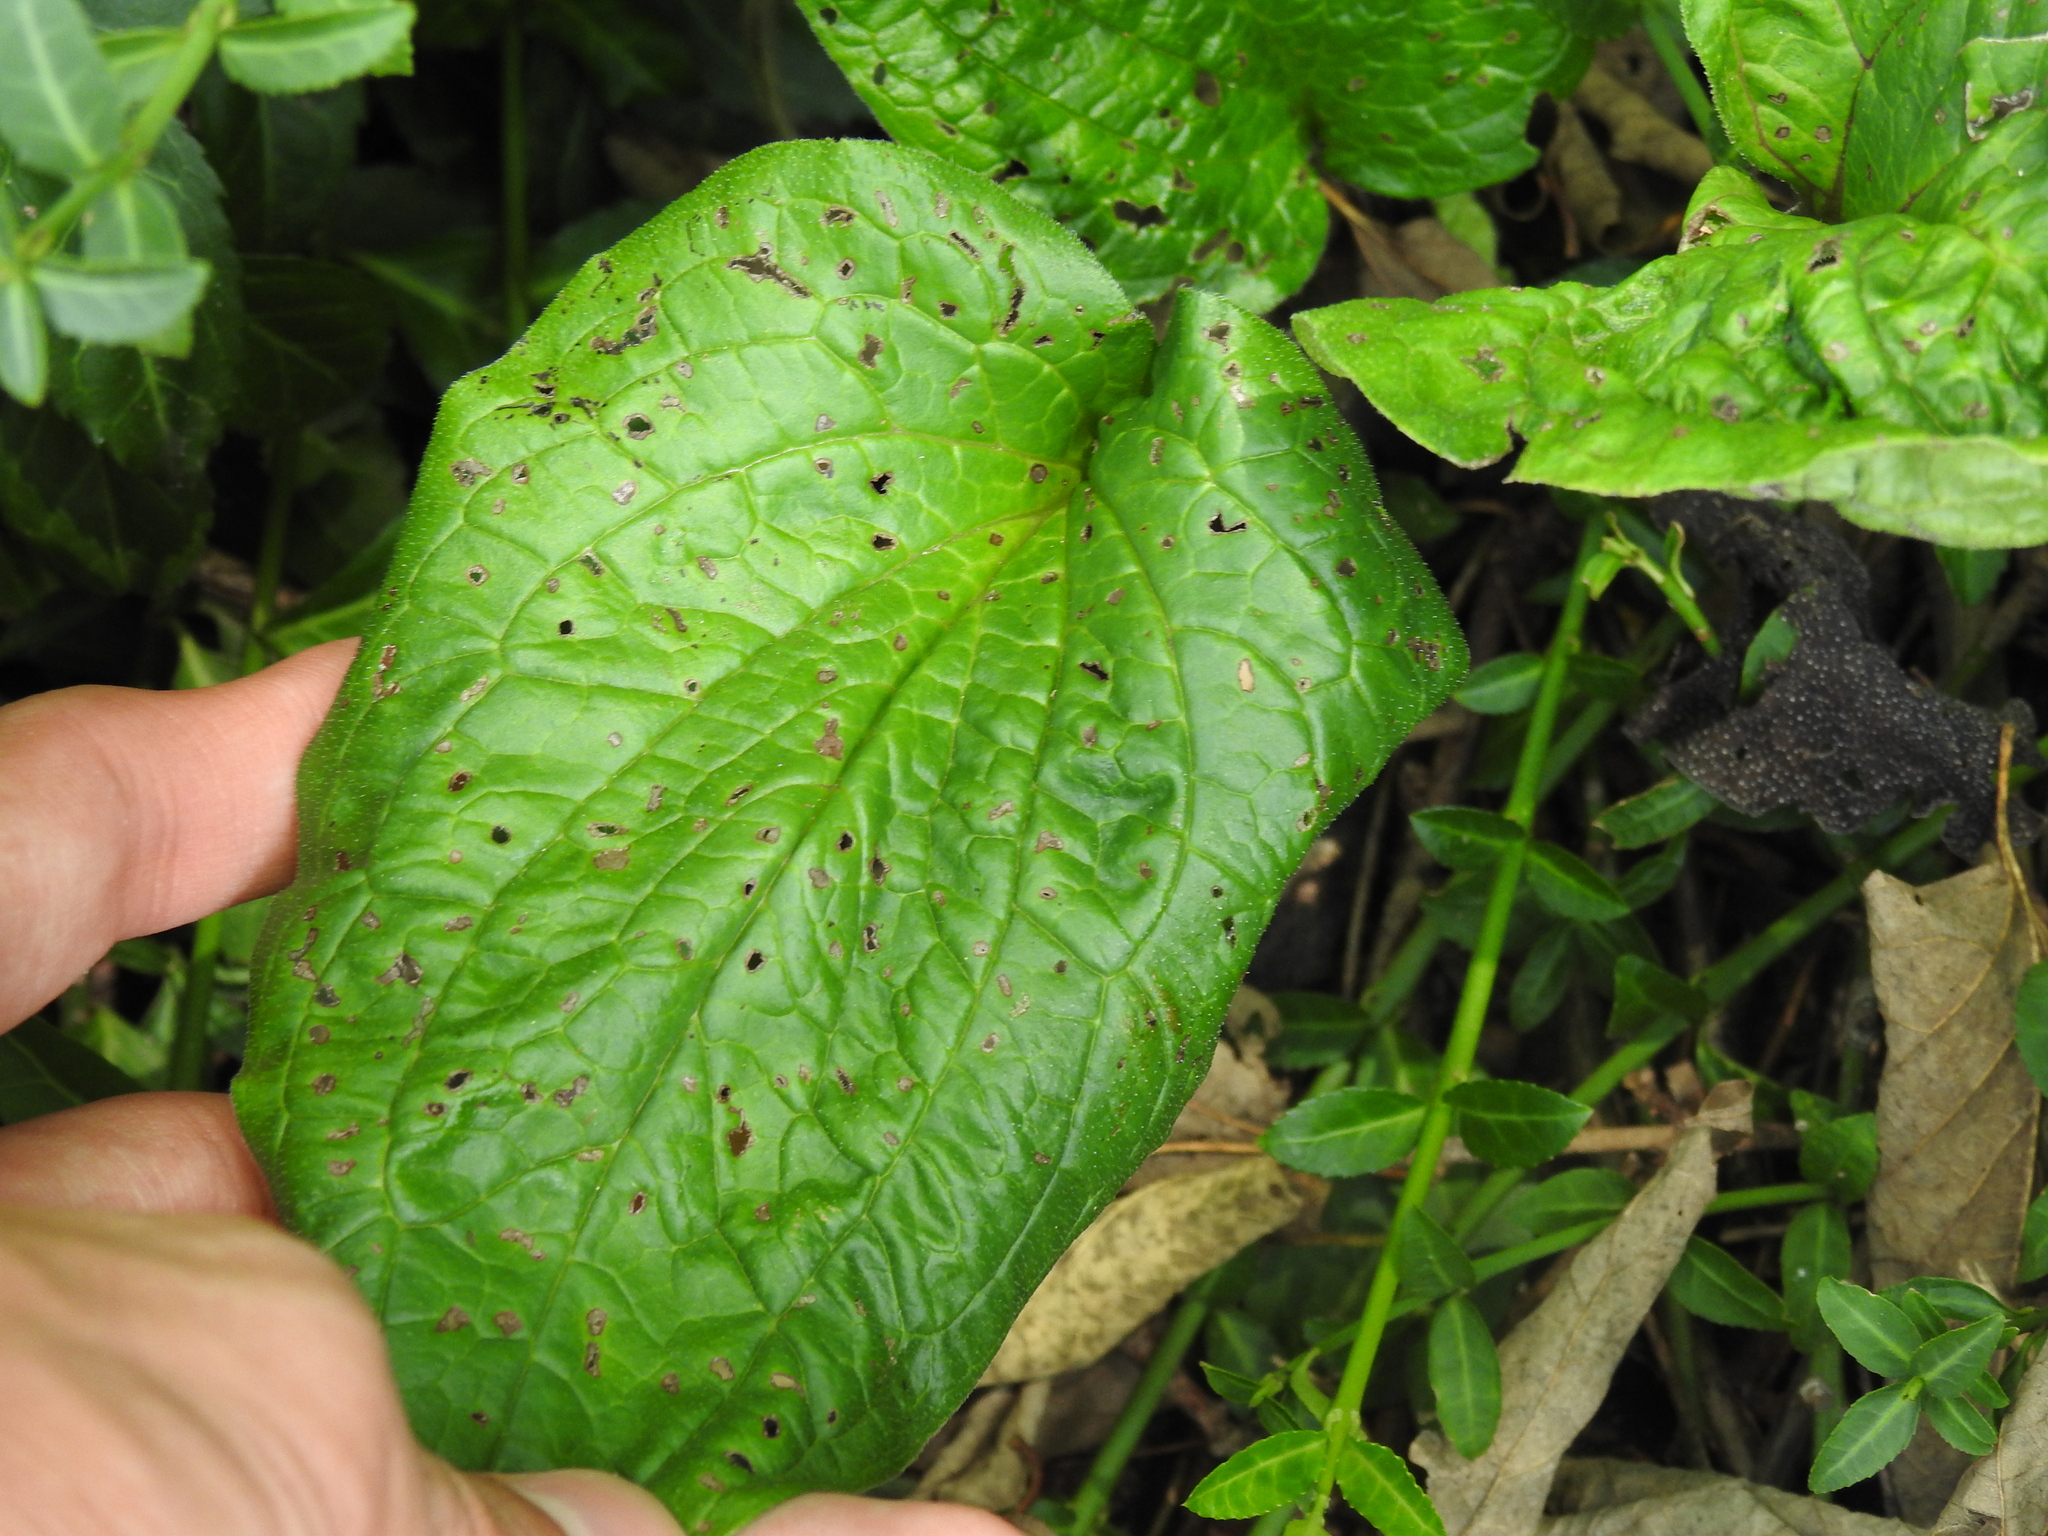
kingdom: Plantae
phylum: Tracheophyta
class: Magnoliopsida
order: Boraginales
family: Boraginaceae
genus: Hackelia
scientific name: Hackelia virginiana
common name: Beggar's-lice
